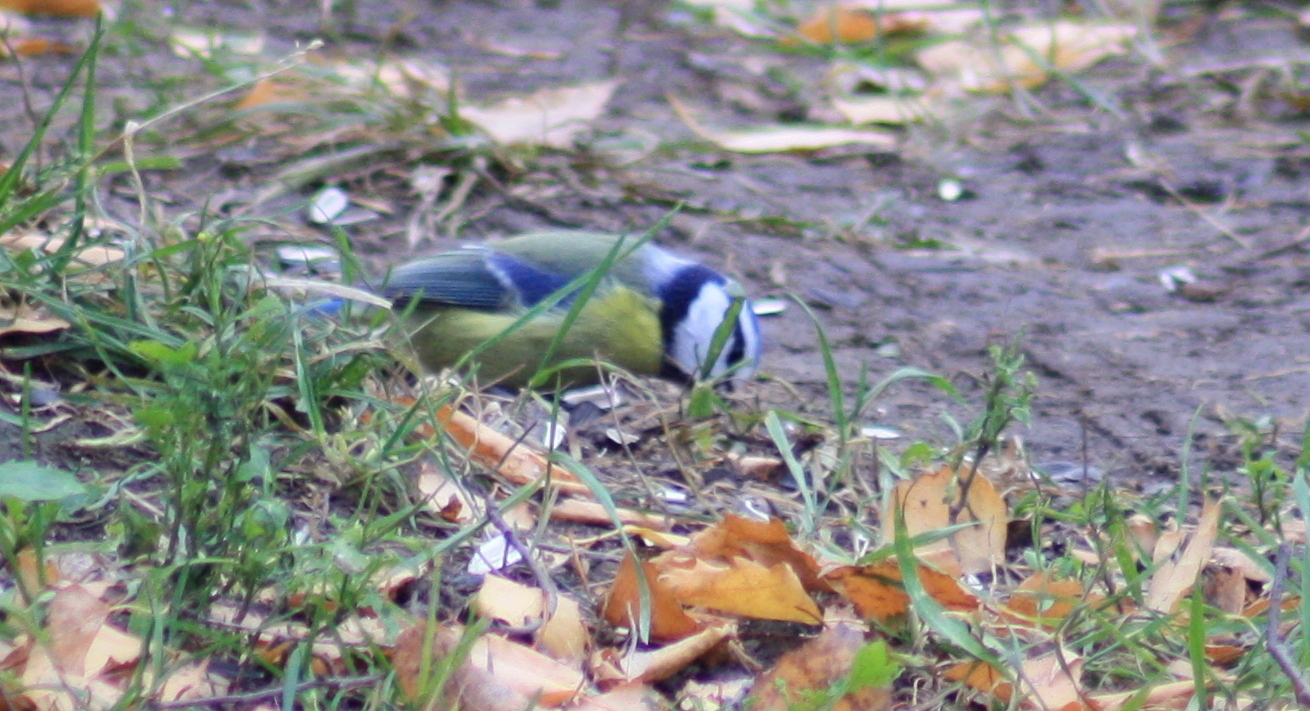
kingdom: Animalia
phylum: Chordata
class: Aves
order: Passeriformes
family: Paridae
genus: Cyanistes
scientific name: Cyanistes caeruleus
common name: Eurasian blue tit
